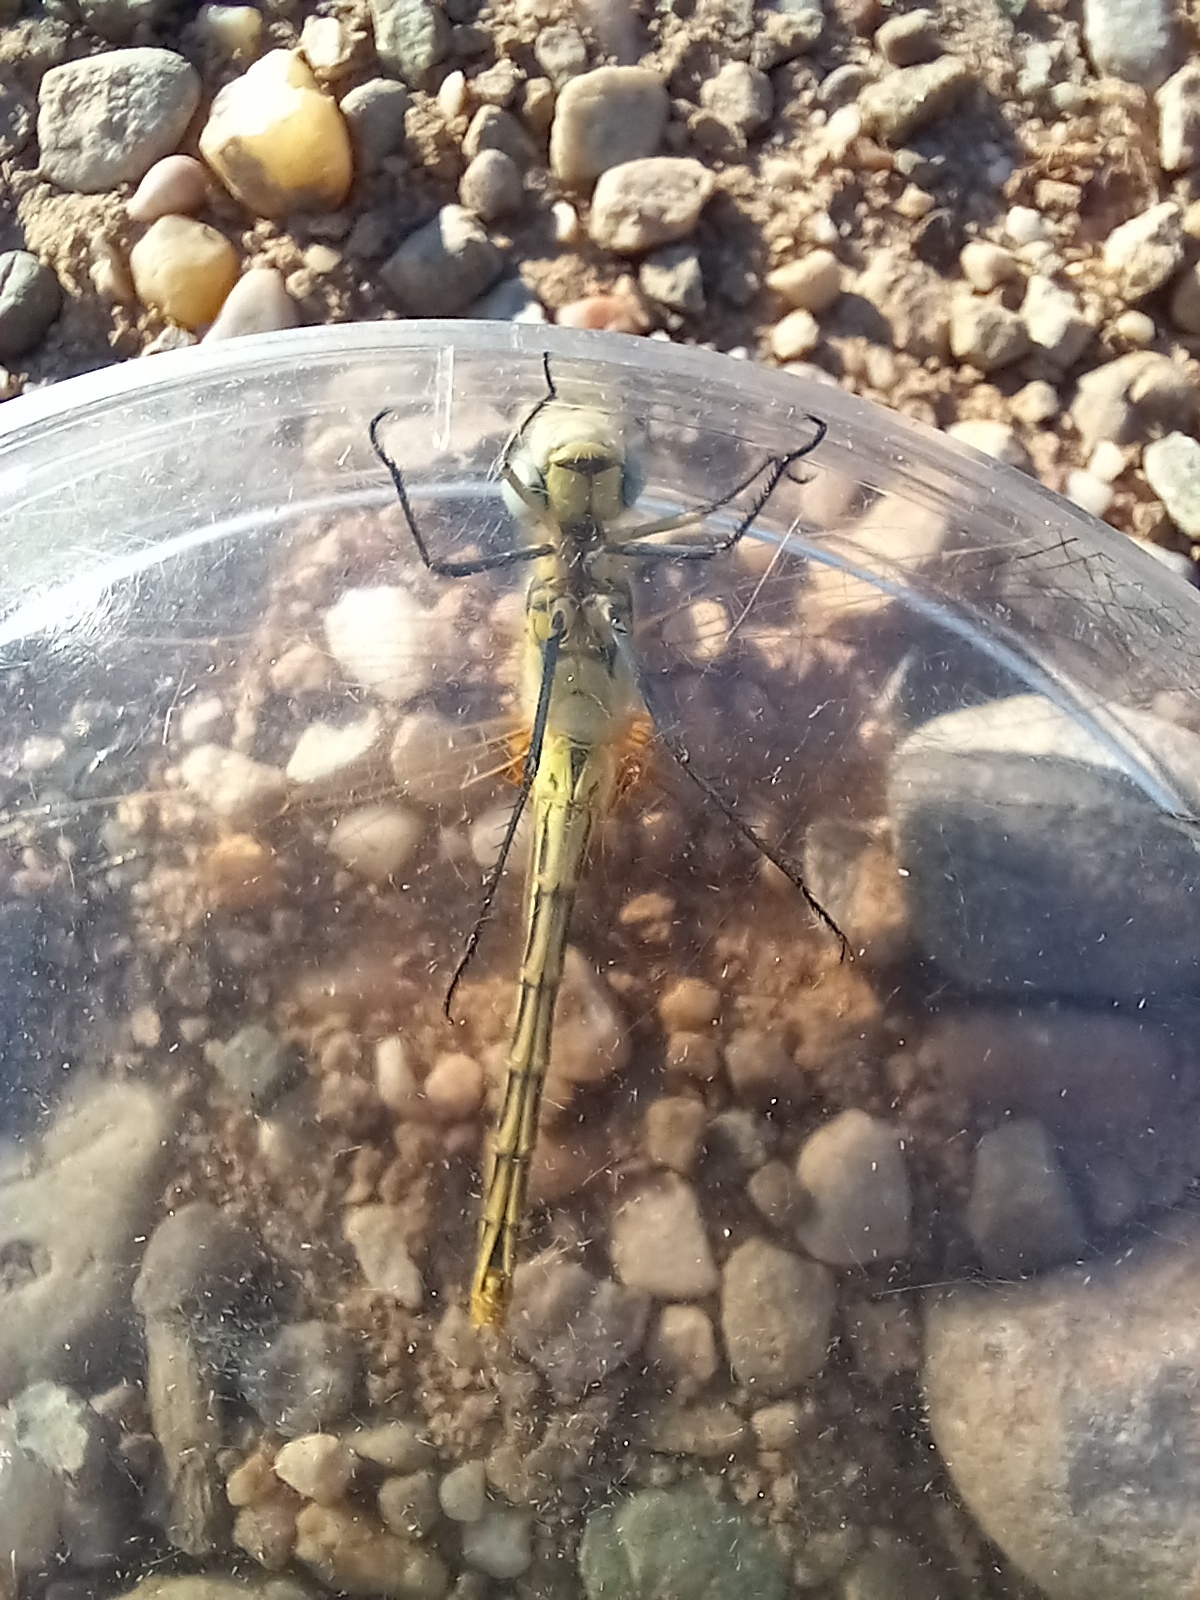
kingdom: Animalia
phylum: Arthropoda
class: Insecta
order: Odonata
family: Libellulidae
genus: Sympetrum
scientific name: Sympetrum fonscolombii
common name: Red-veined darter
